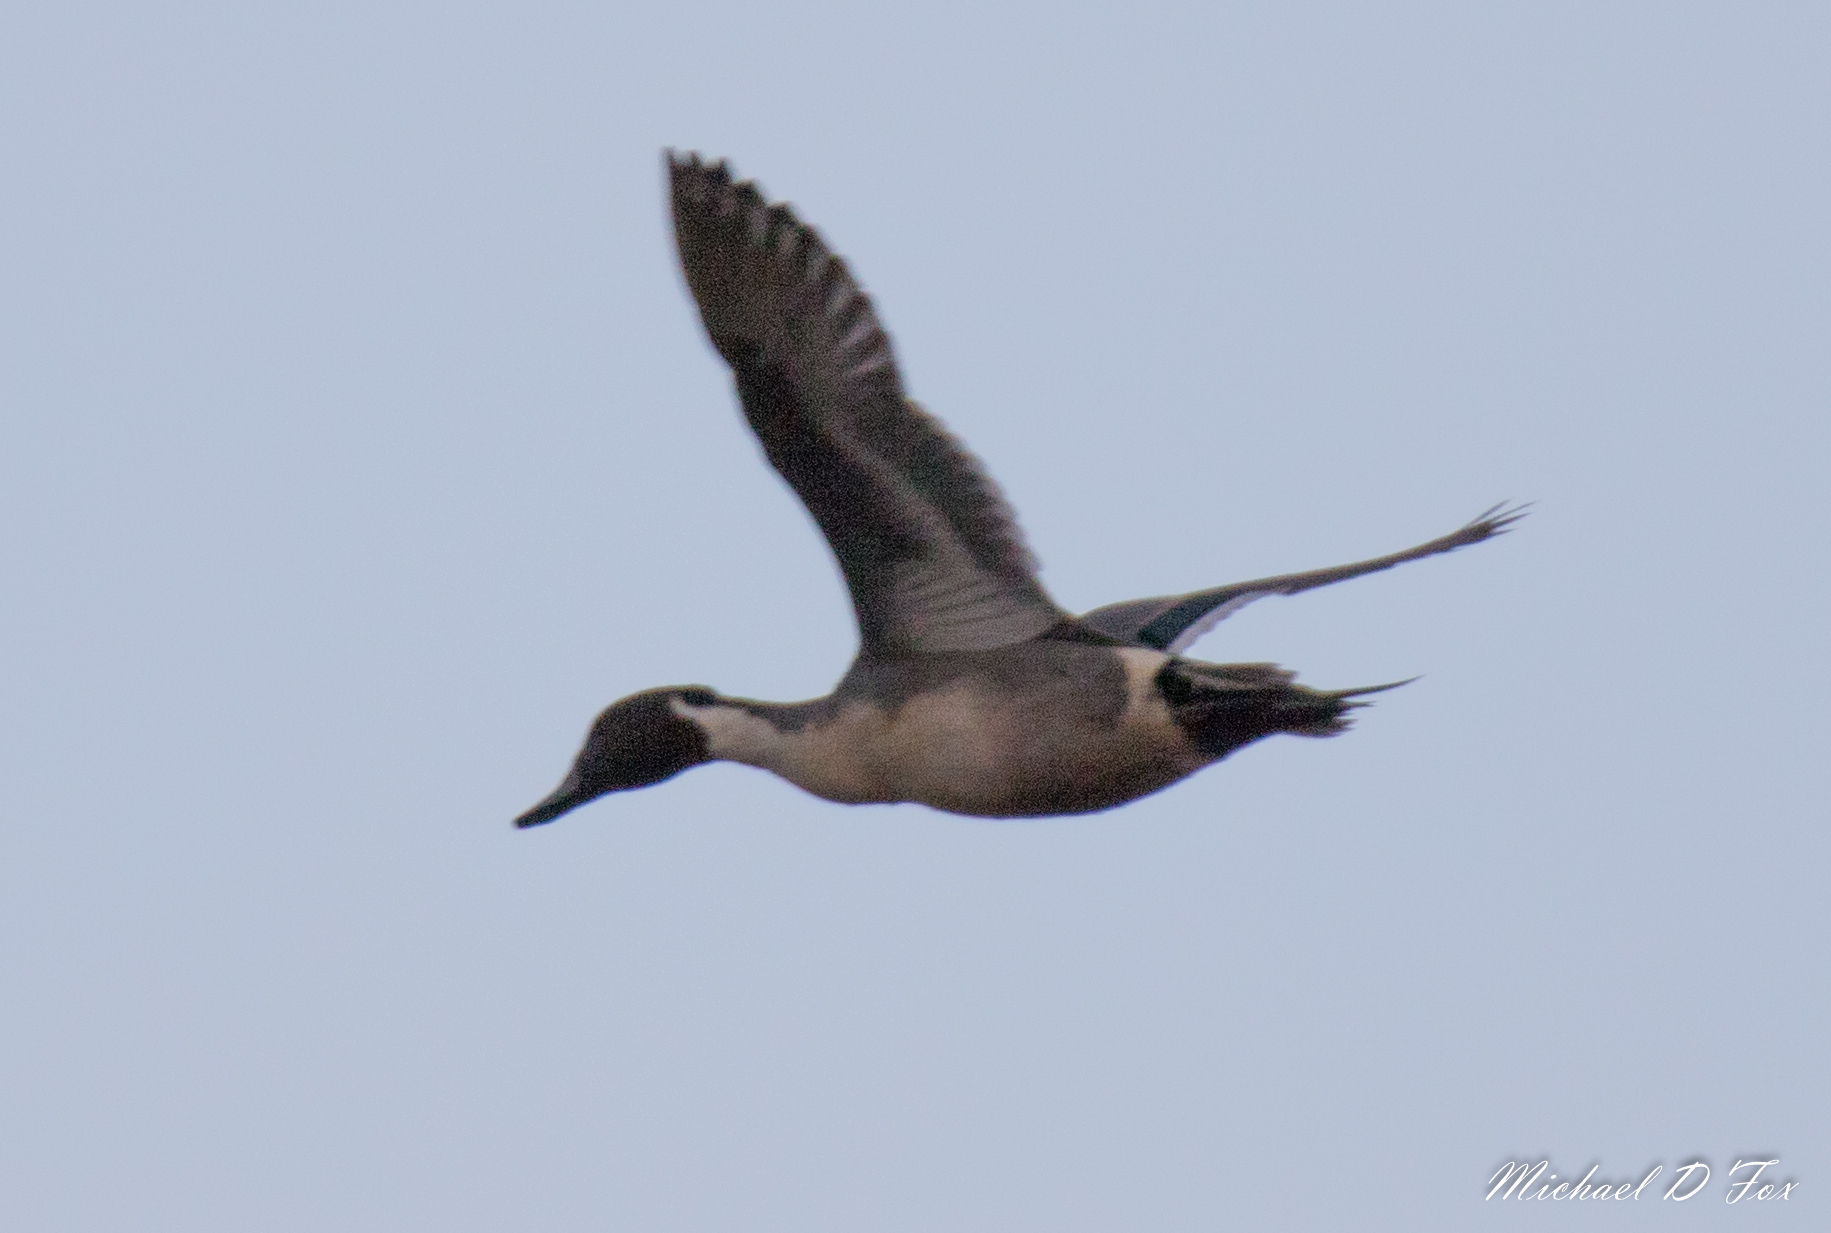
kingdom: Animalia
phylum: Chordata
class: Aves
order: Anseriformes
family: Anatidae
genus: Anas
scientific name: Anas acuta
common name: Northern pintail
